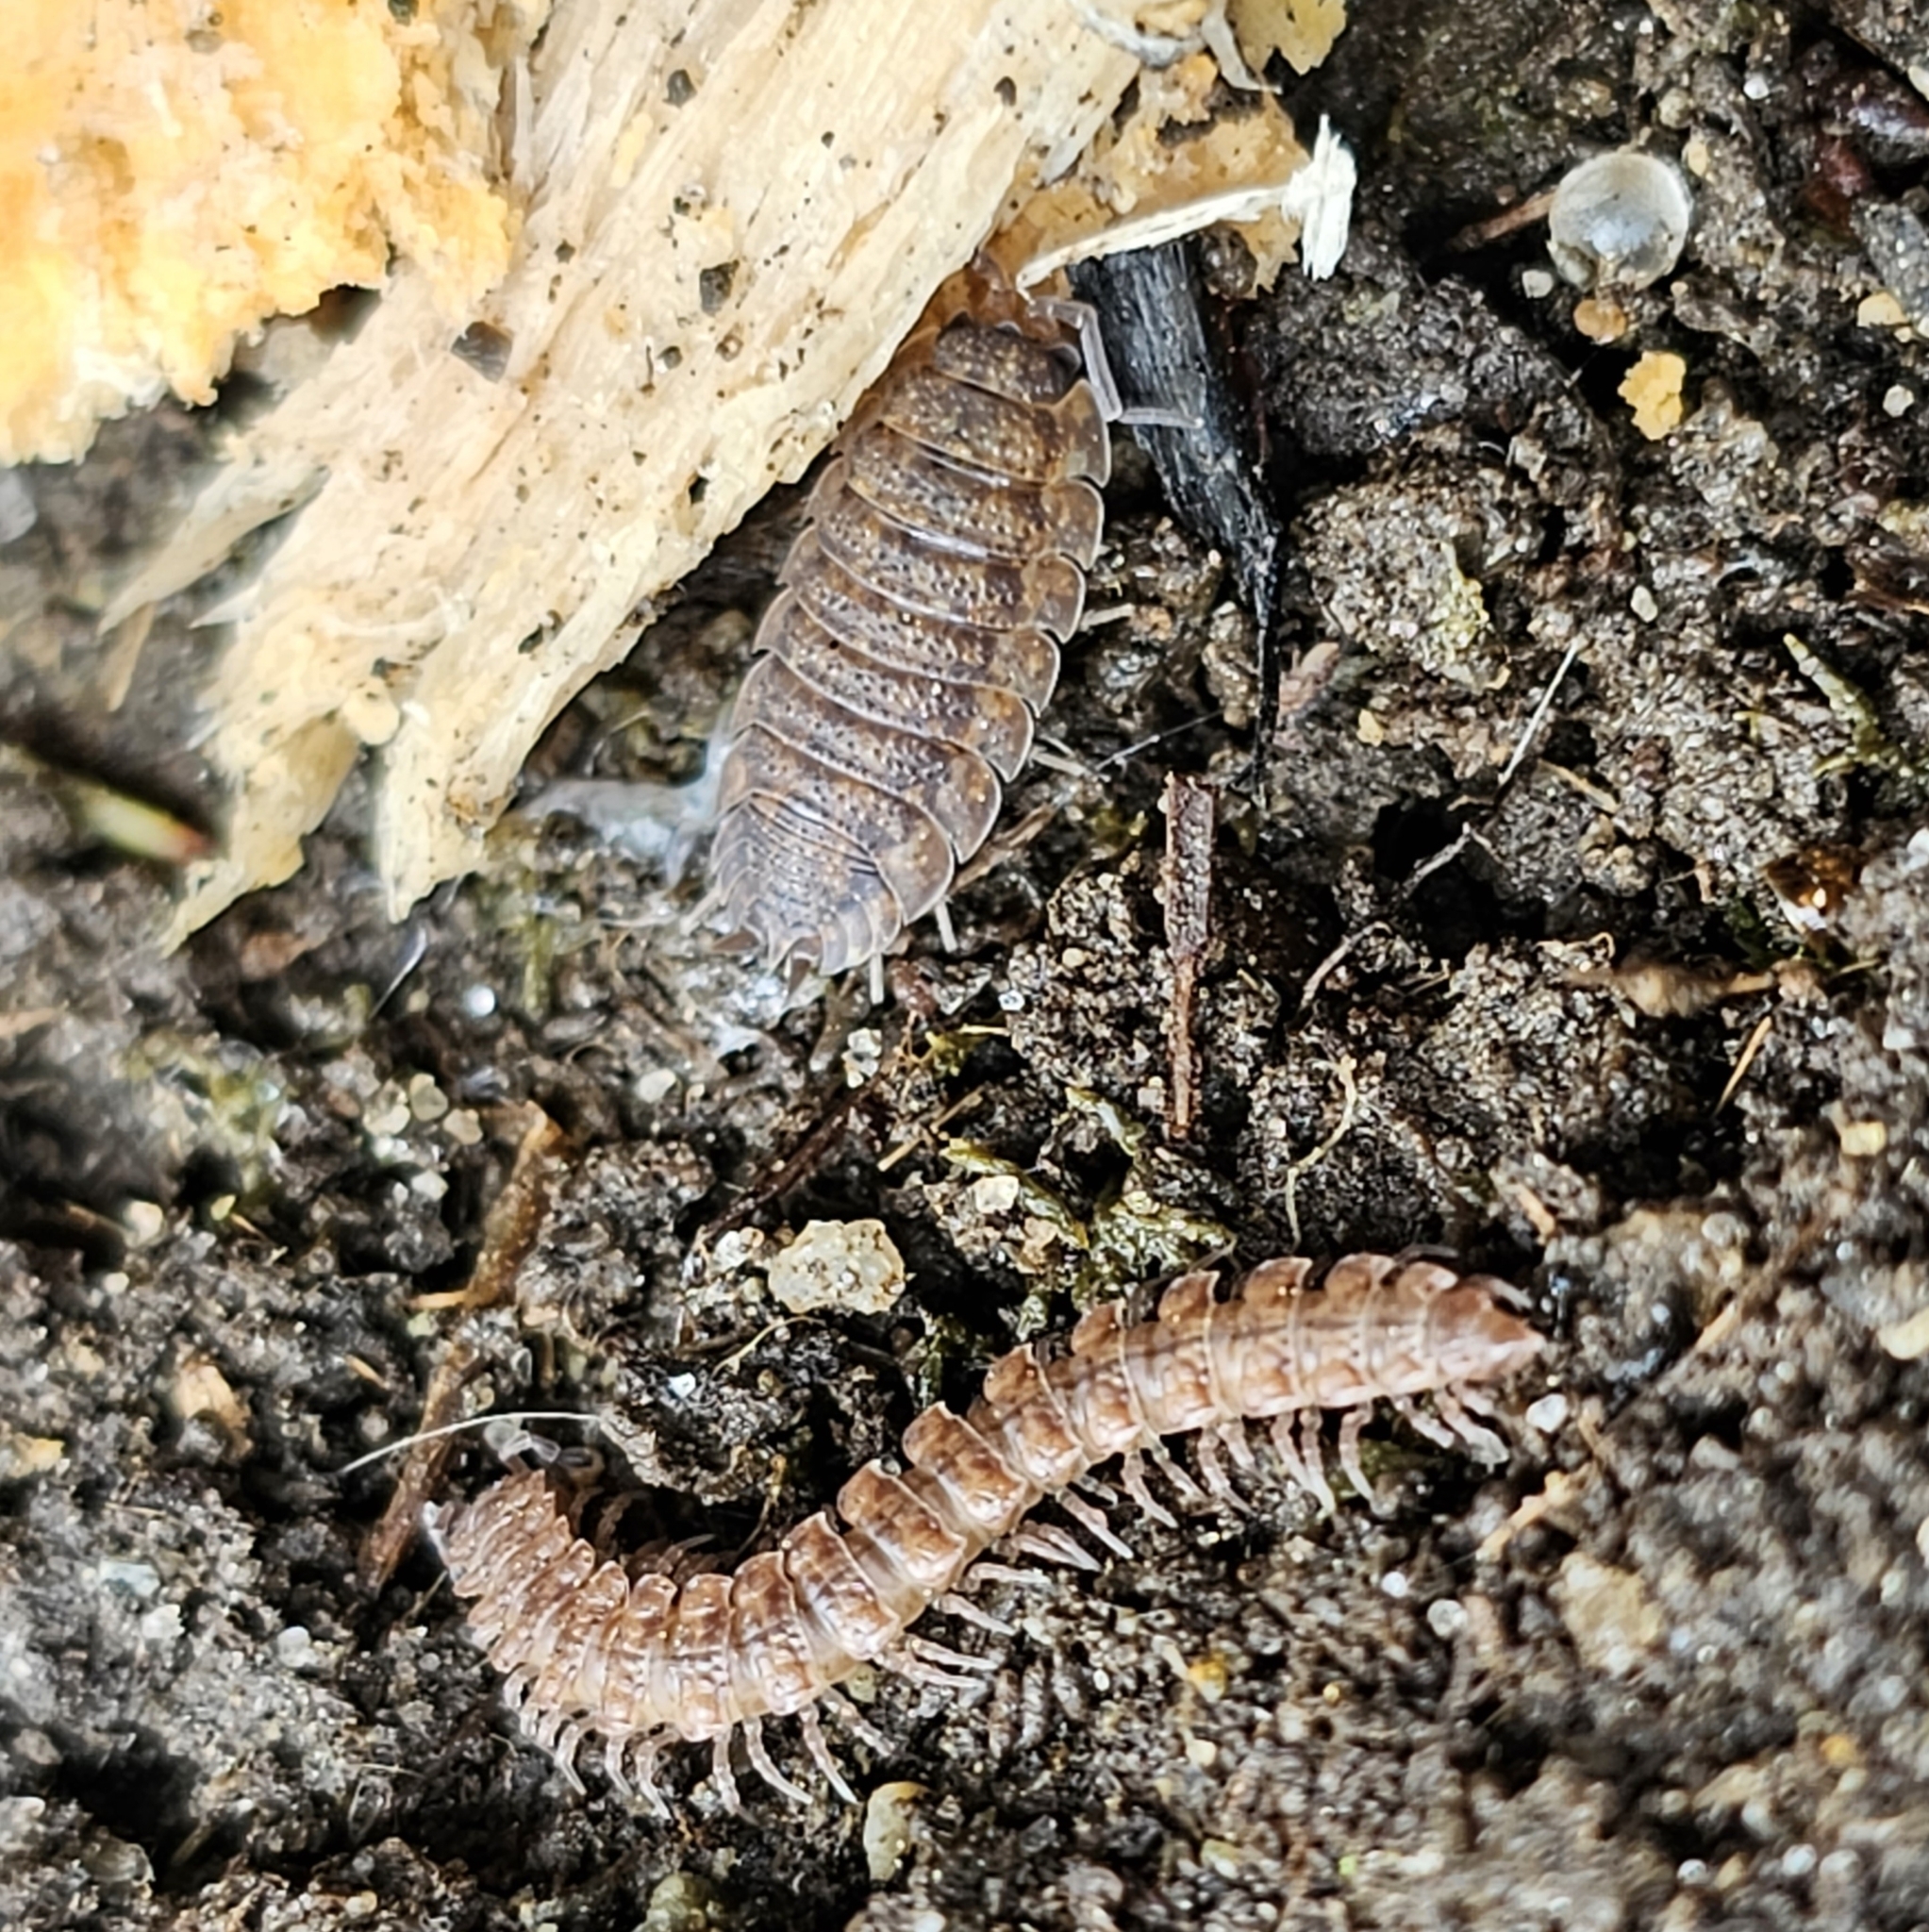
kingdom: Animalia
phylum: Arthropoda
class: Malacostraca
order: Isopoda
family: Porcellionidae
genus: Porcellio
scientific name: Porcellio scaber
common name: Common rough woodlouse
